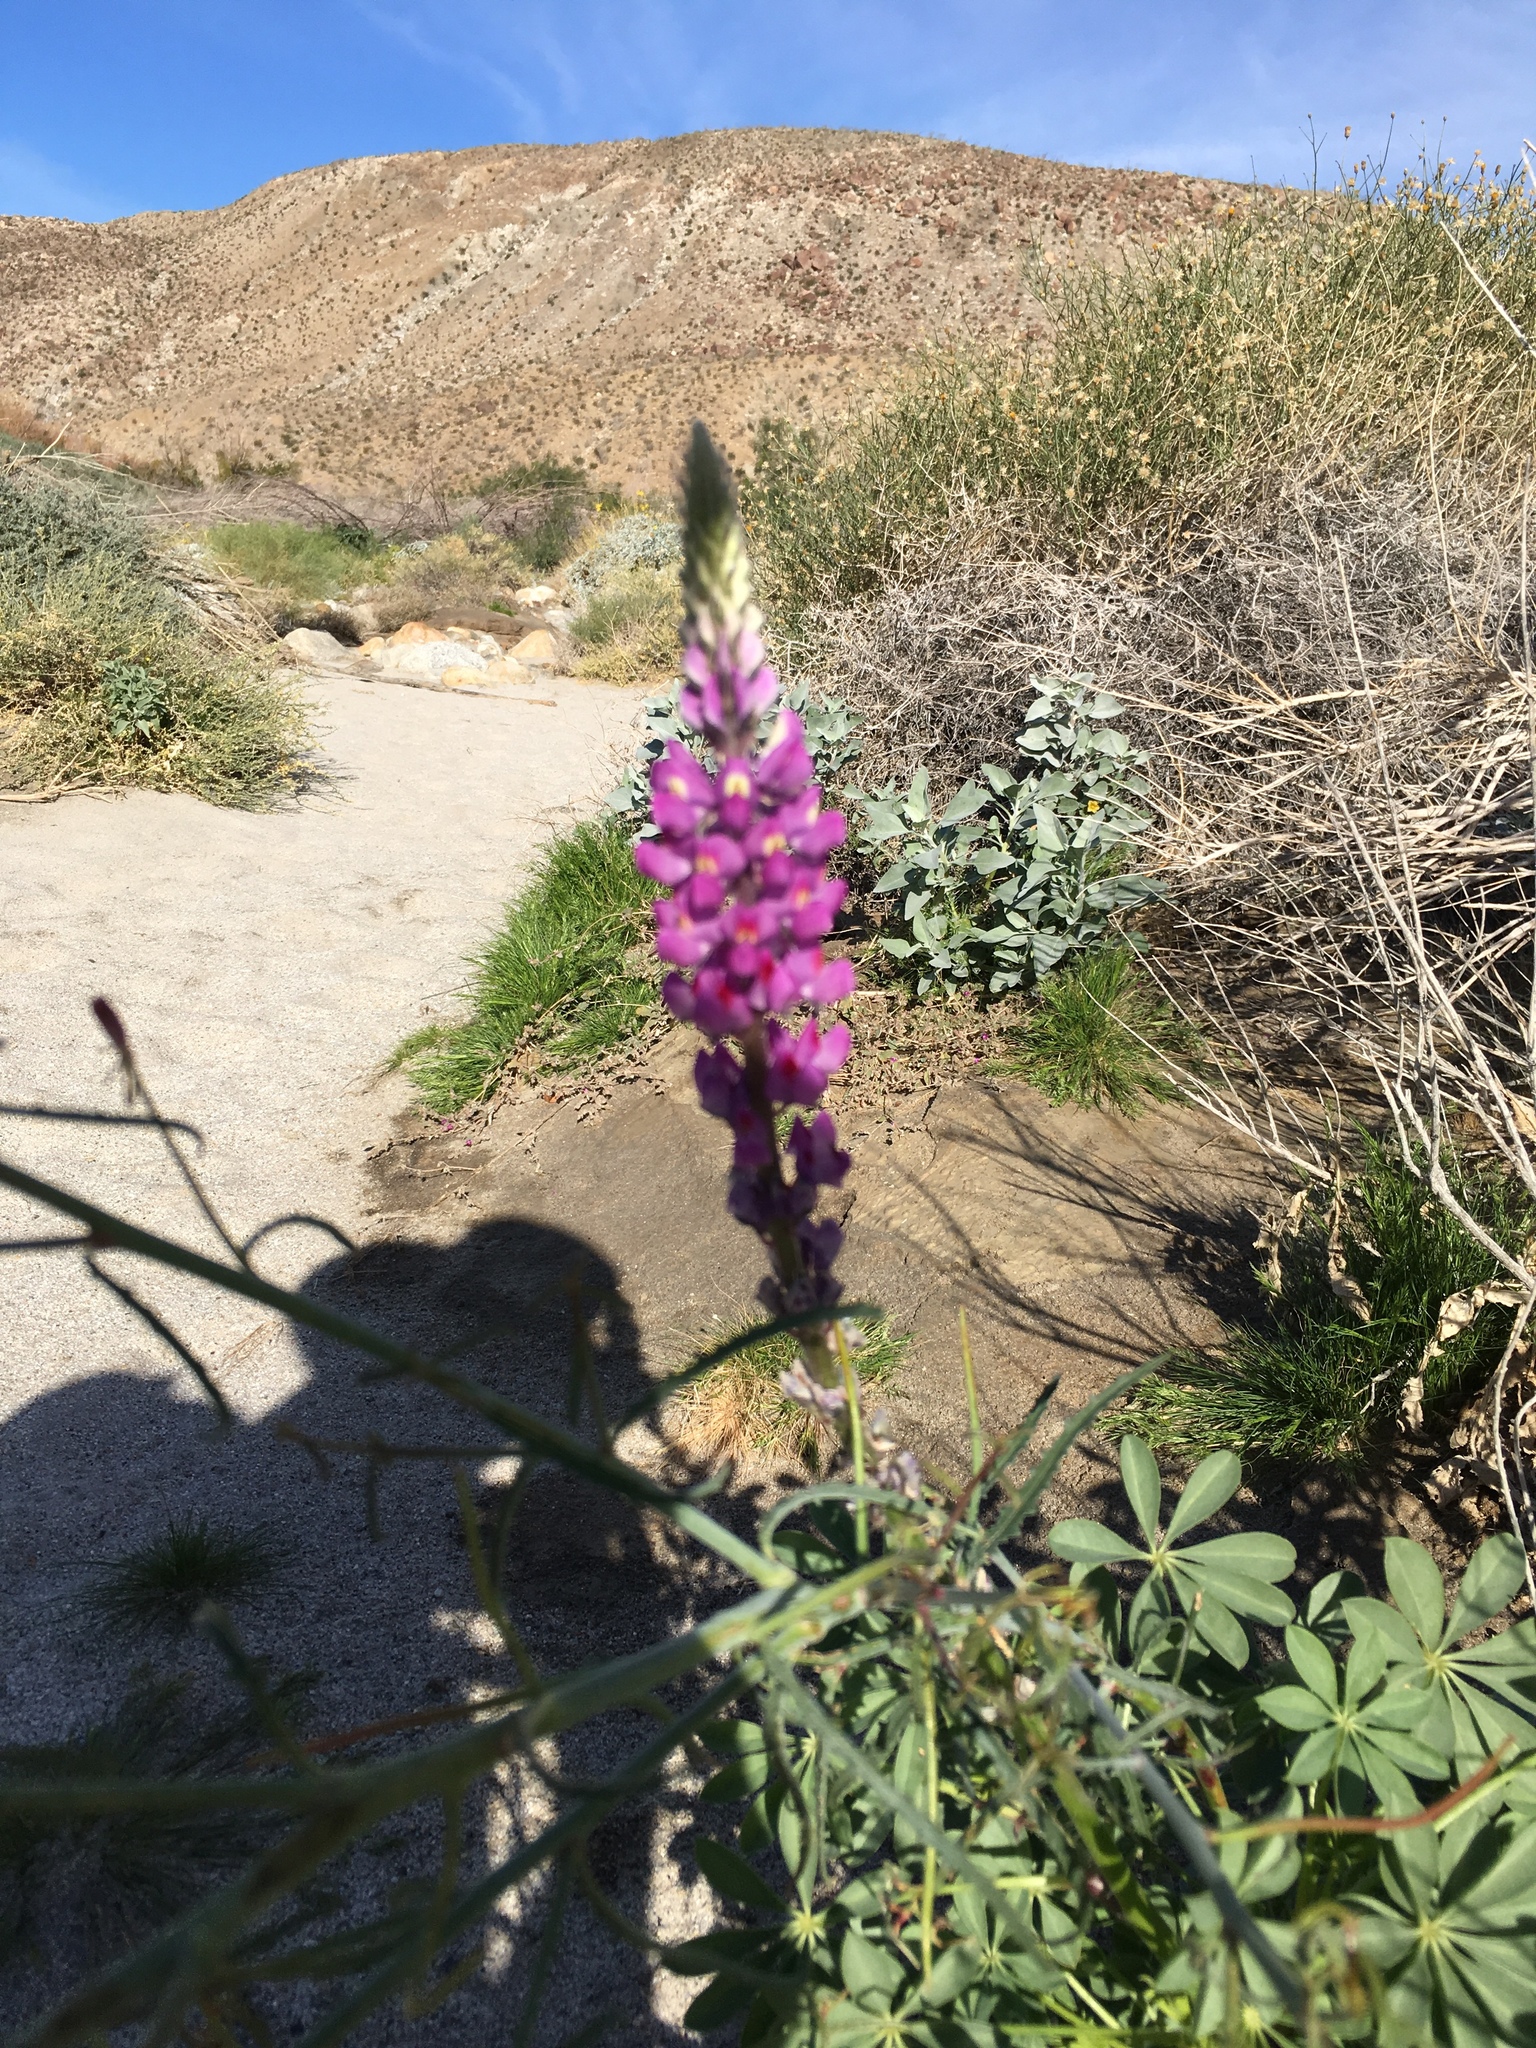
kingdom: Plantae
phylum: Tracheophyta
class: Magnoliopsida
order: Fabales
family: Fabaceae
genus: Lupinus
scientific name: Lupinus arizonicus
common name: Arizona lupine
